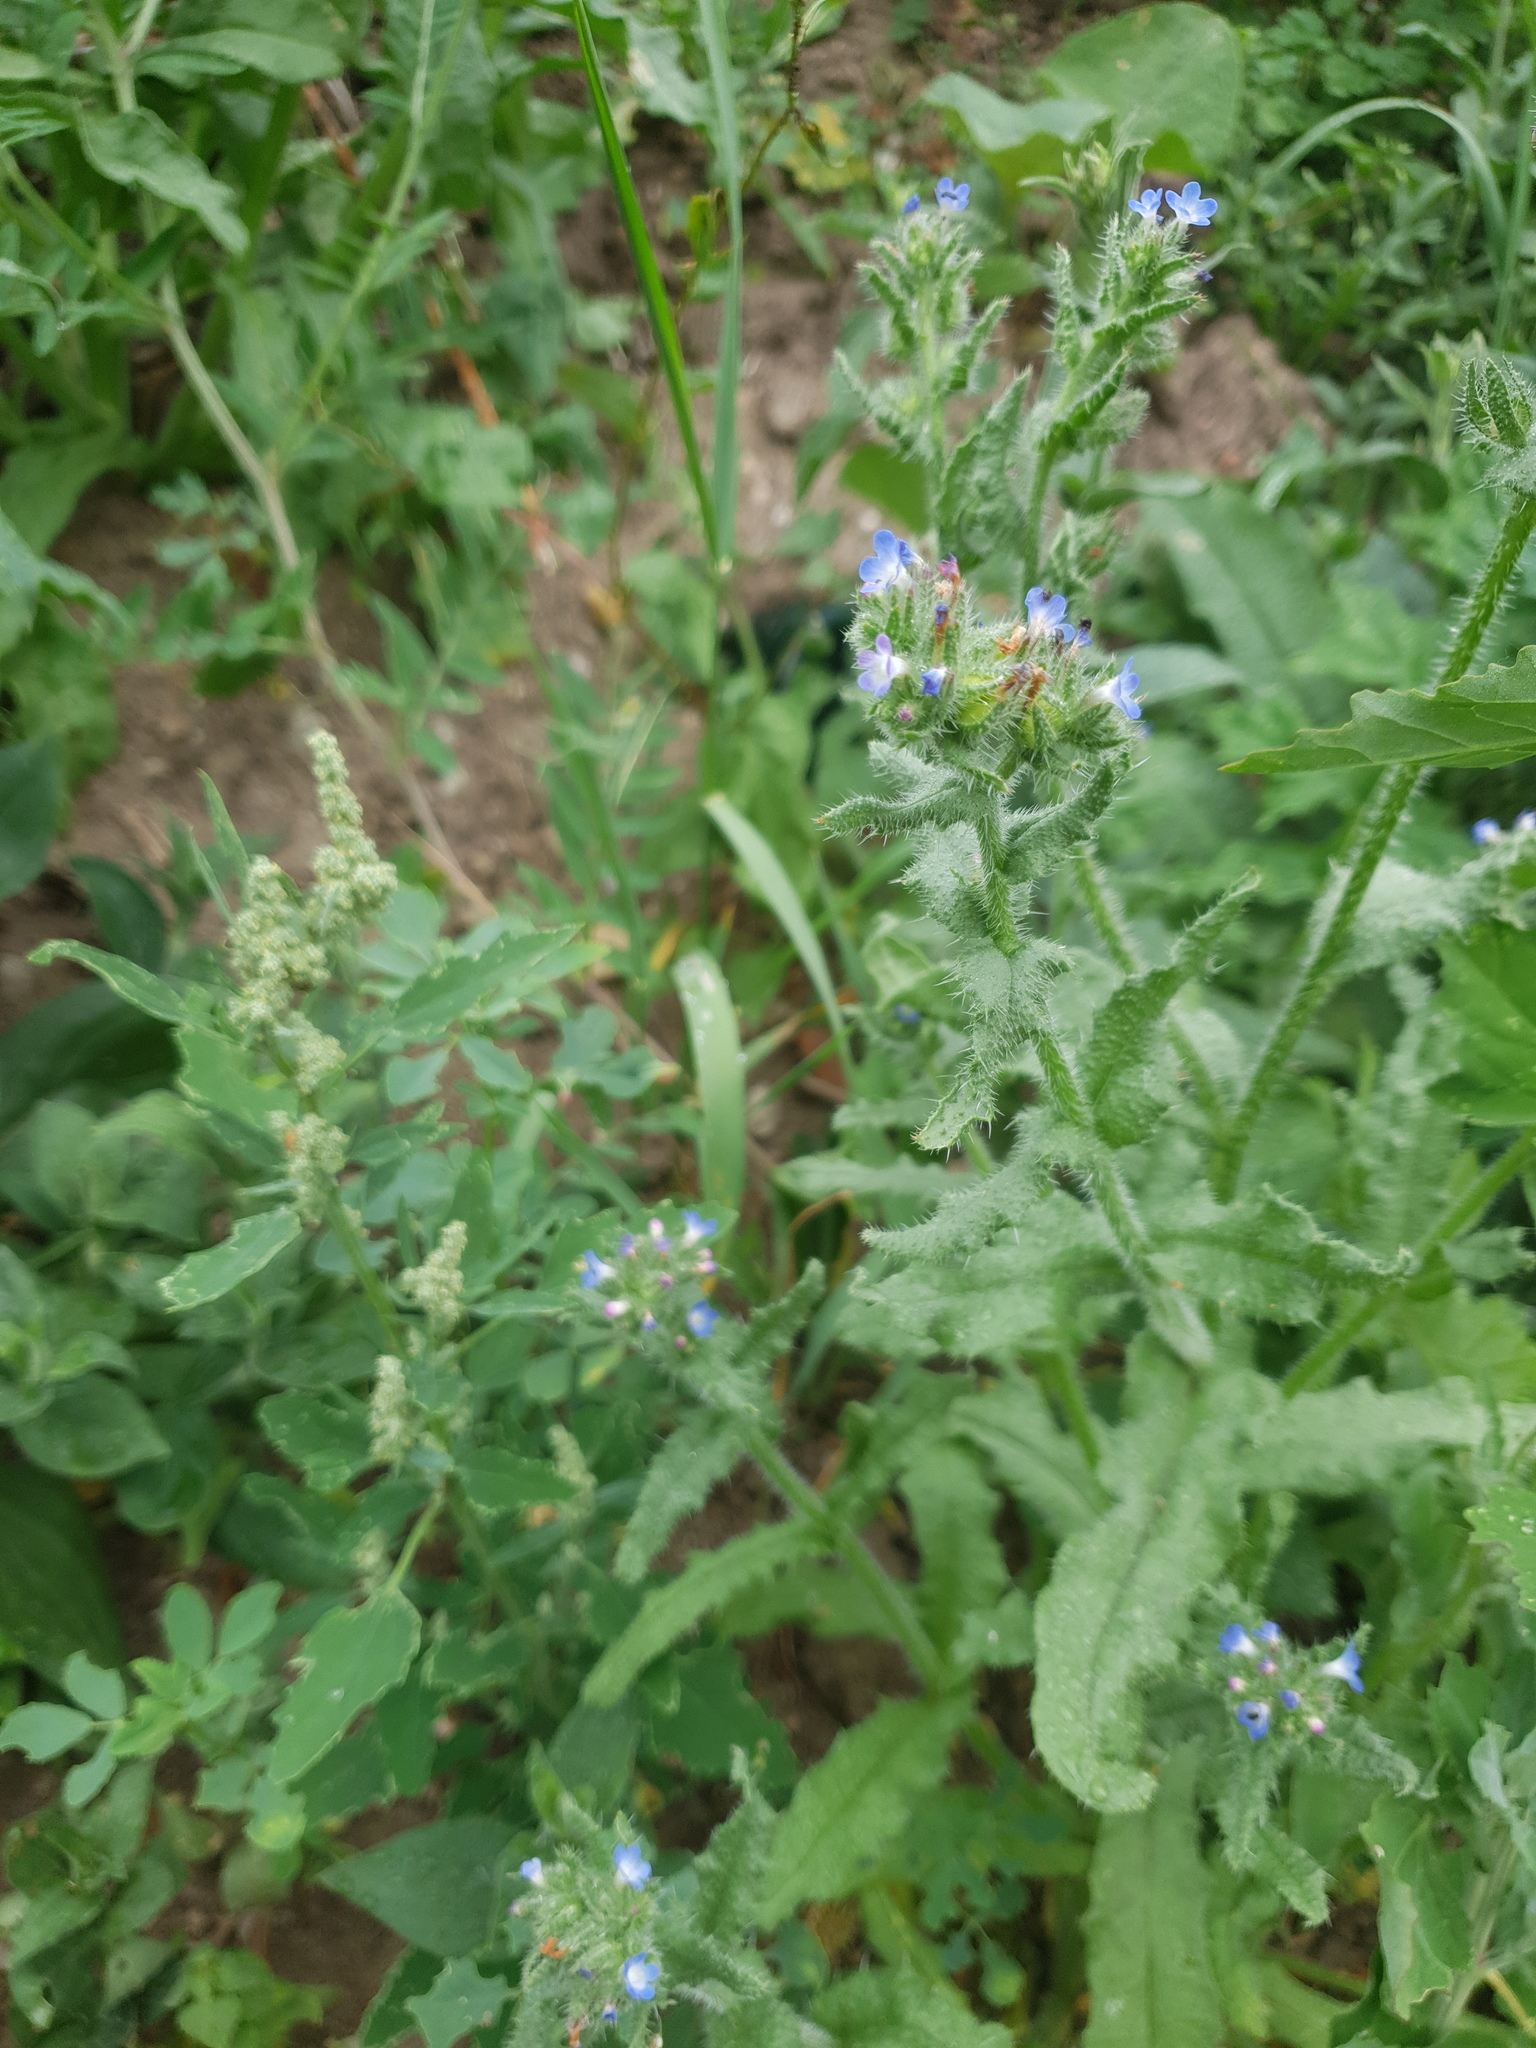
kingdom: Plantae
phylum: Tracheophyta
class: Magnoliopsida
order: Boraginales
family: Boraginaceae
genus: Lycopsis
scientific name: Lycopsis arvensis
